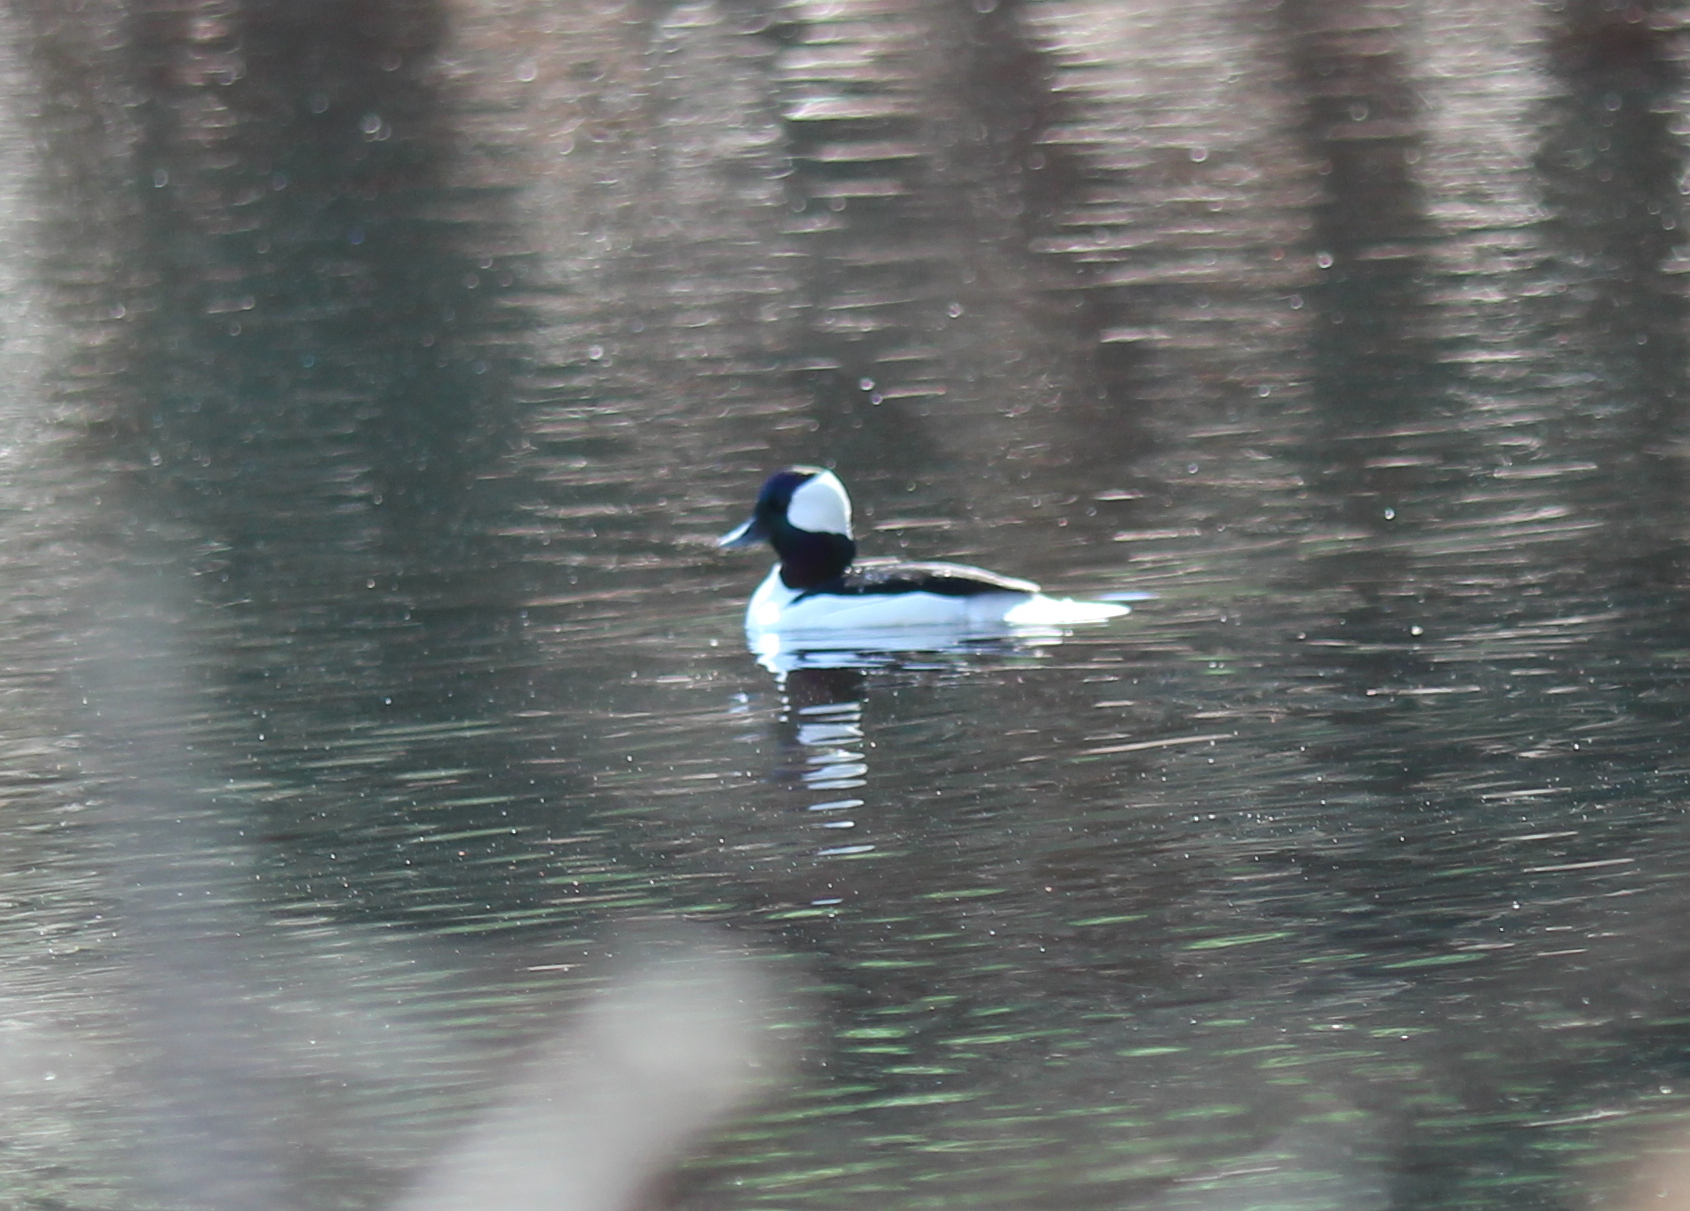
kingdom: Animalia
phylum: Chordata
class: Aves
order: Anseriformes
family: Anatidae
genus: Bucephala
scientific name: Bucephala albeola
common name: Bufflehead
